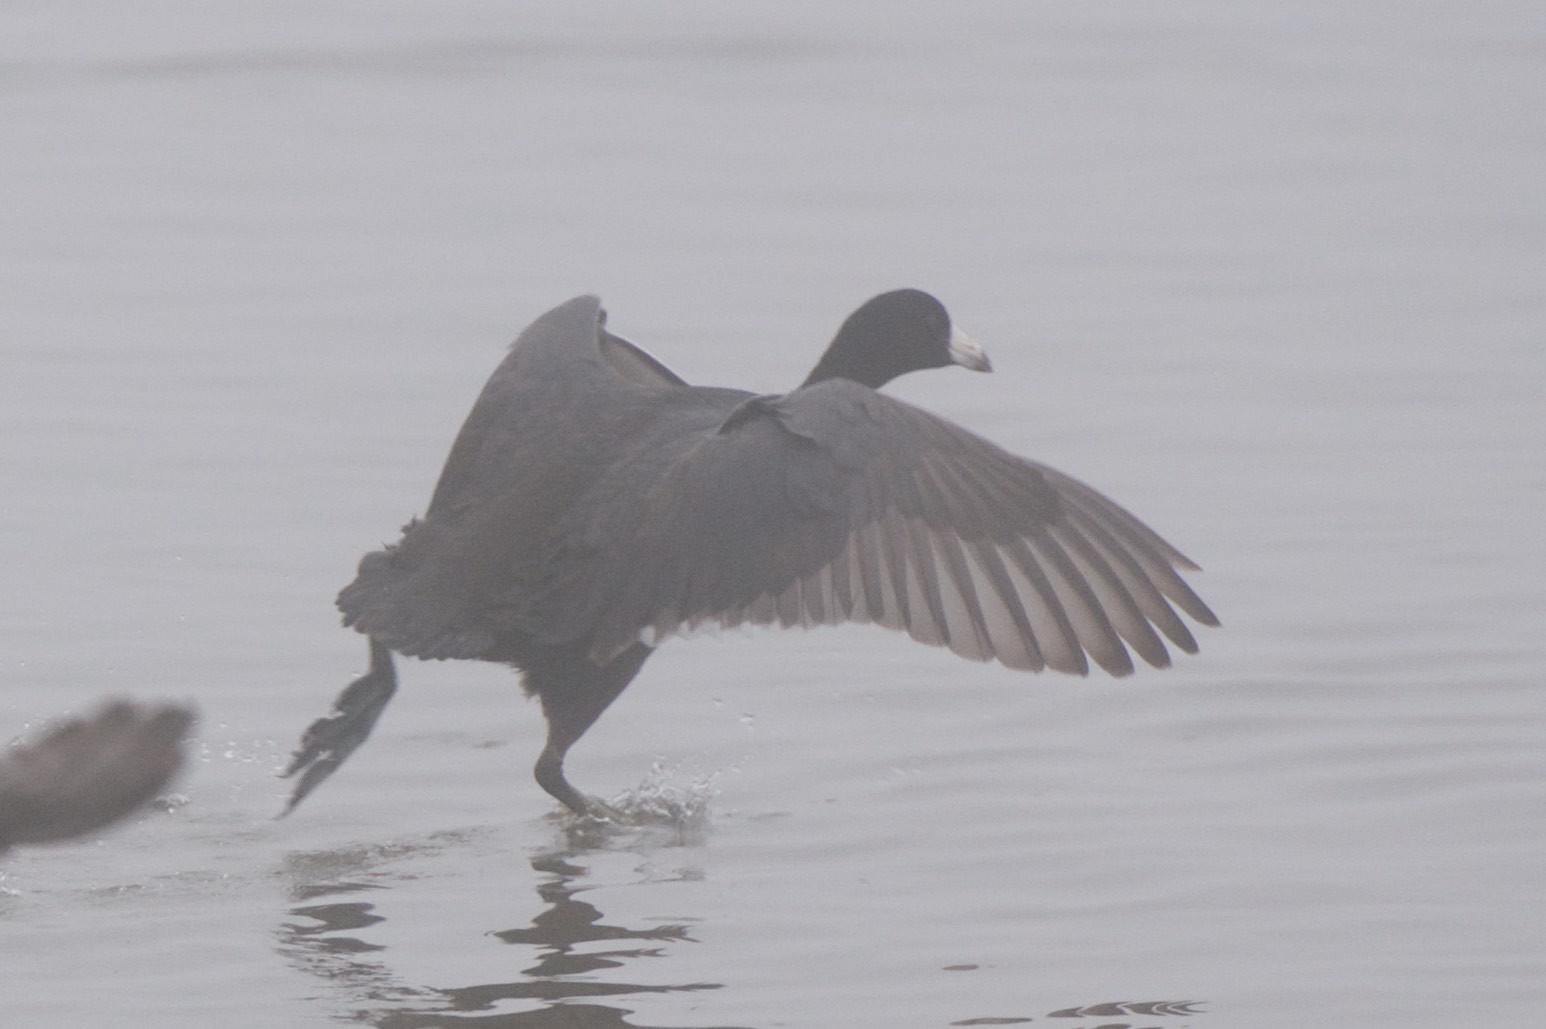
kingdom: Animalia
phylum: Chordata
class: Aves
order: Gruiformes
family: Rallidae
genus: Fulica
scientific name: Fulica americana
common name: American coot
